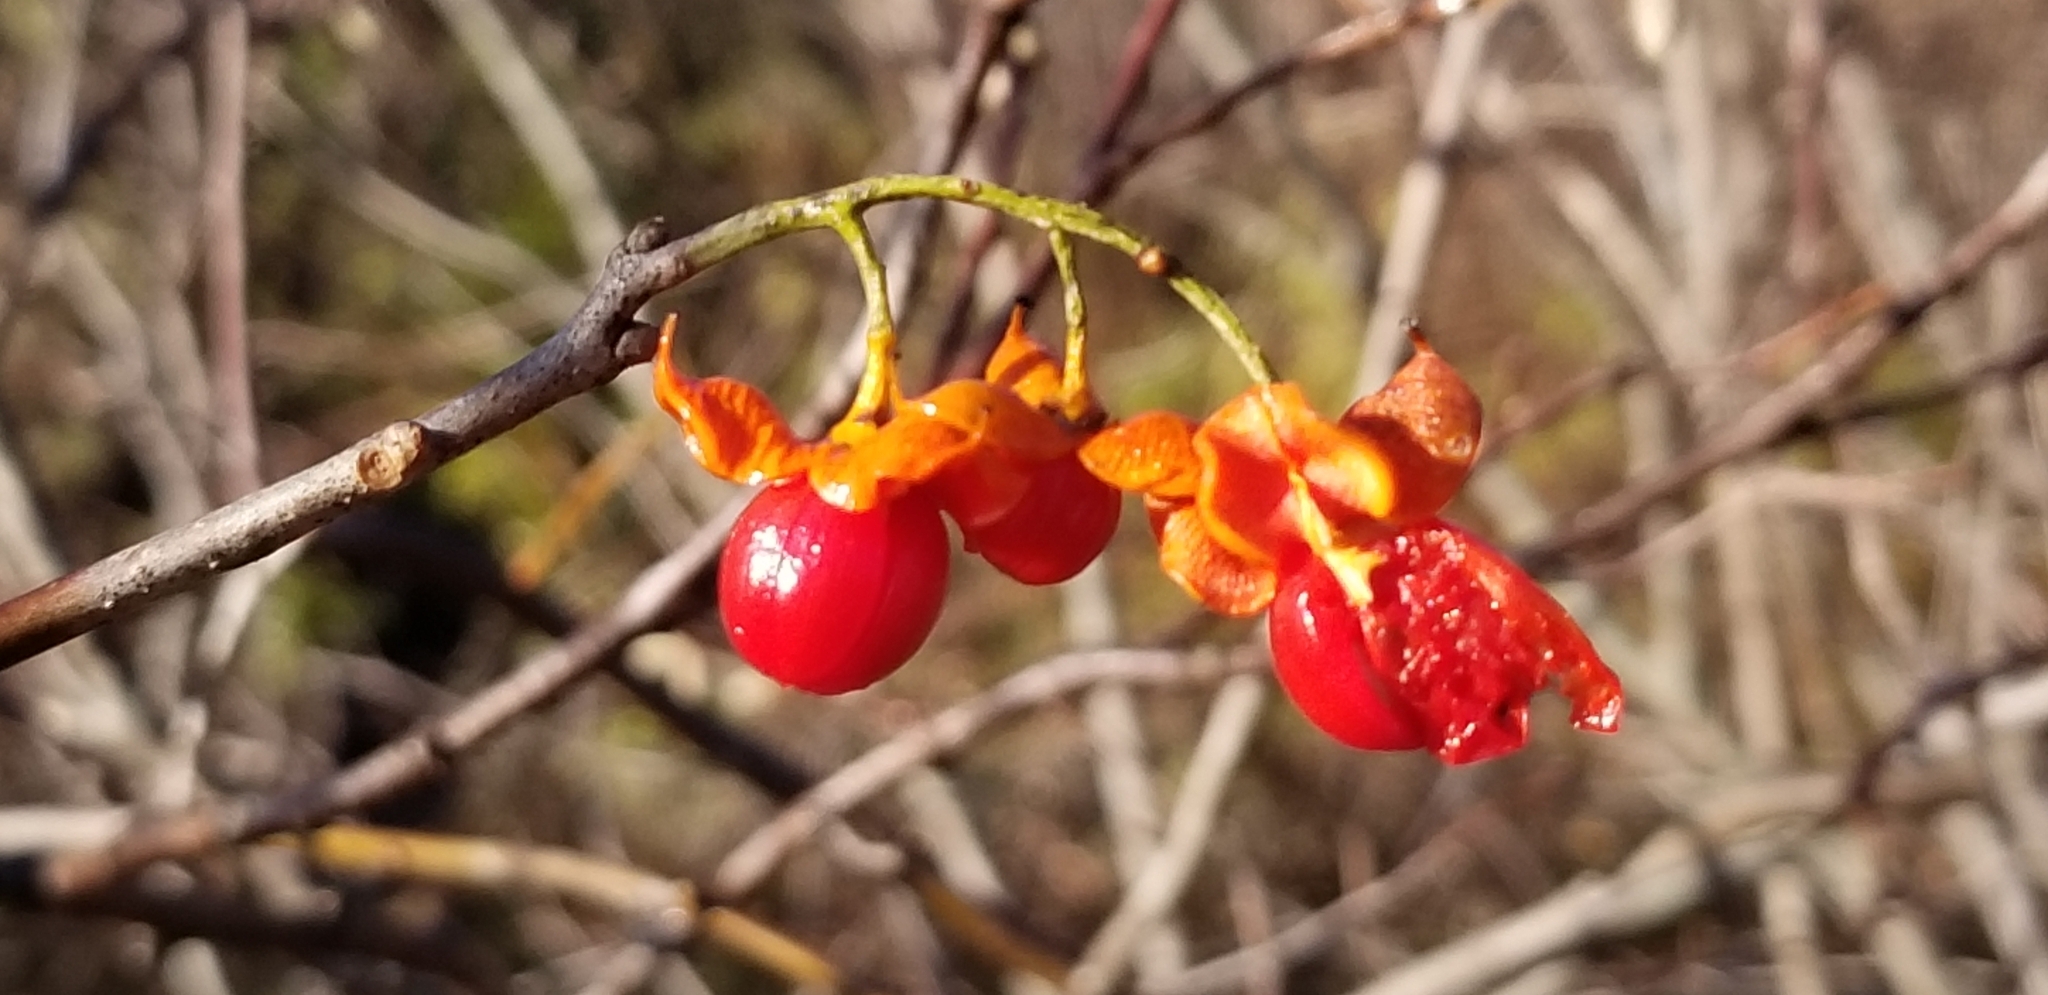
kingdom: Plantae
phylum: Tracheophyta
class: Magnoliopsida
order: Celastrales
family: Celastraceae
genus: Celastrus
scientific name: Celastrus scandens
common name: American bittersweet
